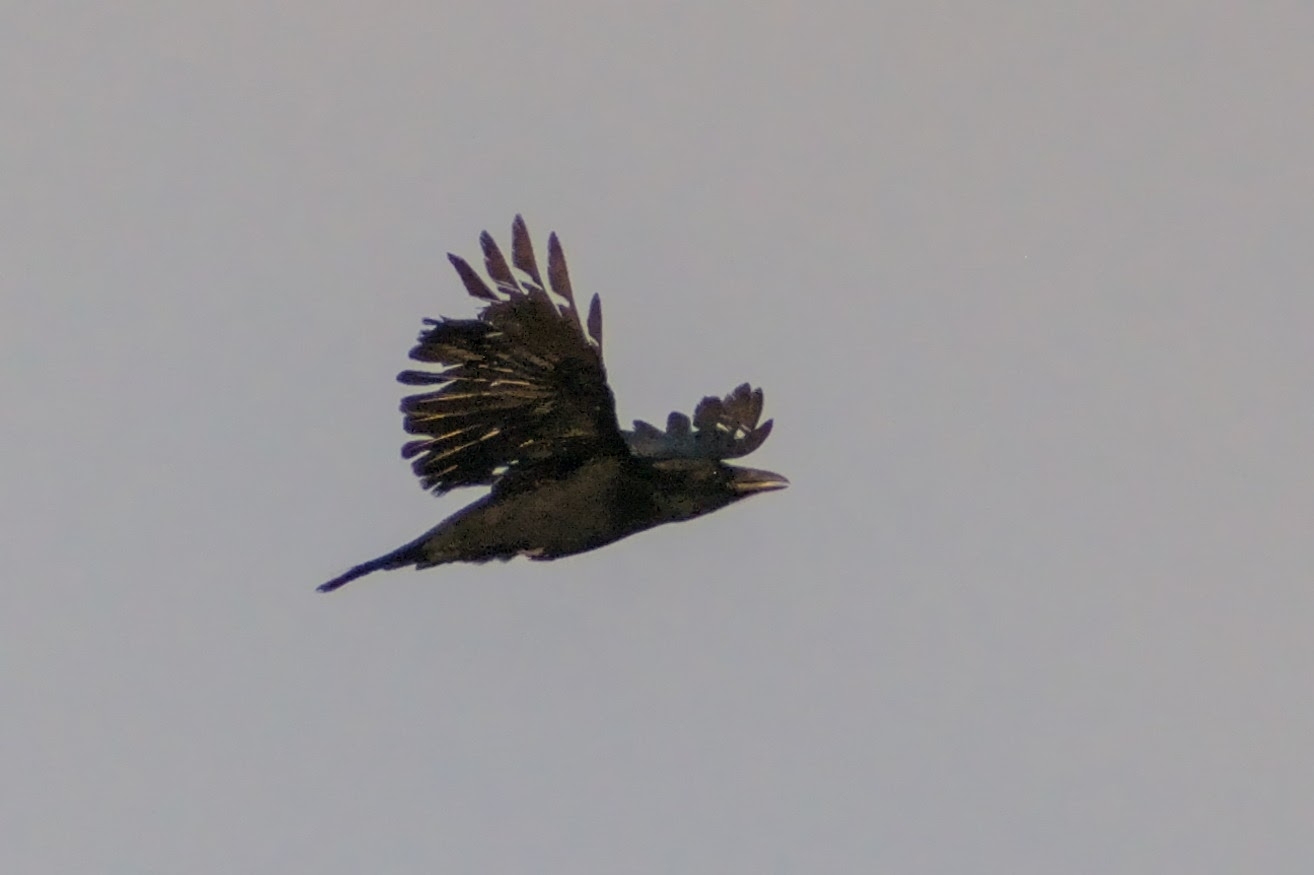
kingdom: Animalia
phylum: Chordata
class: Aves
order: Passeriformes
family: Corvidae
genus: Corvus
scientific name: Corvus corax
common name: Common raven
